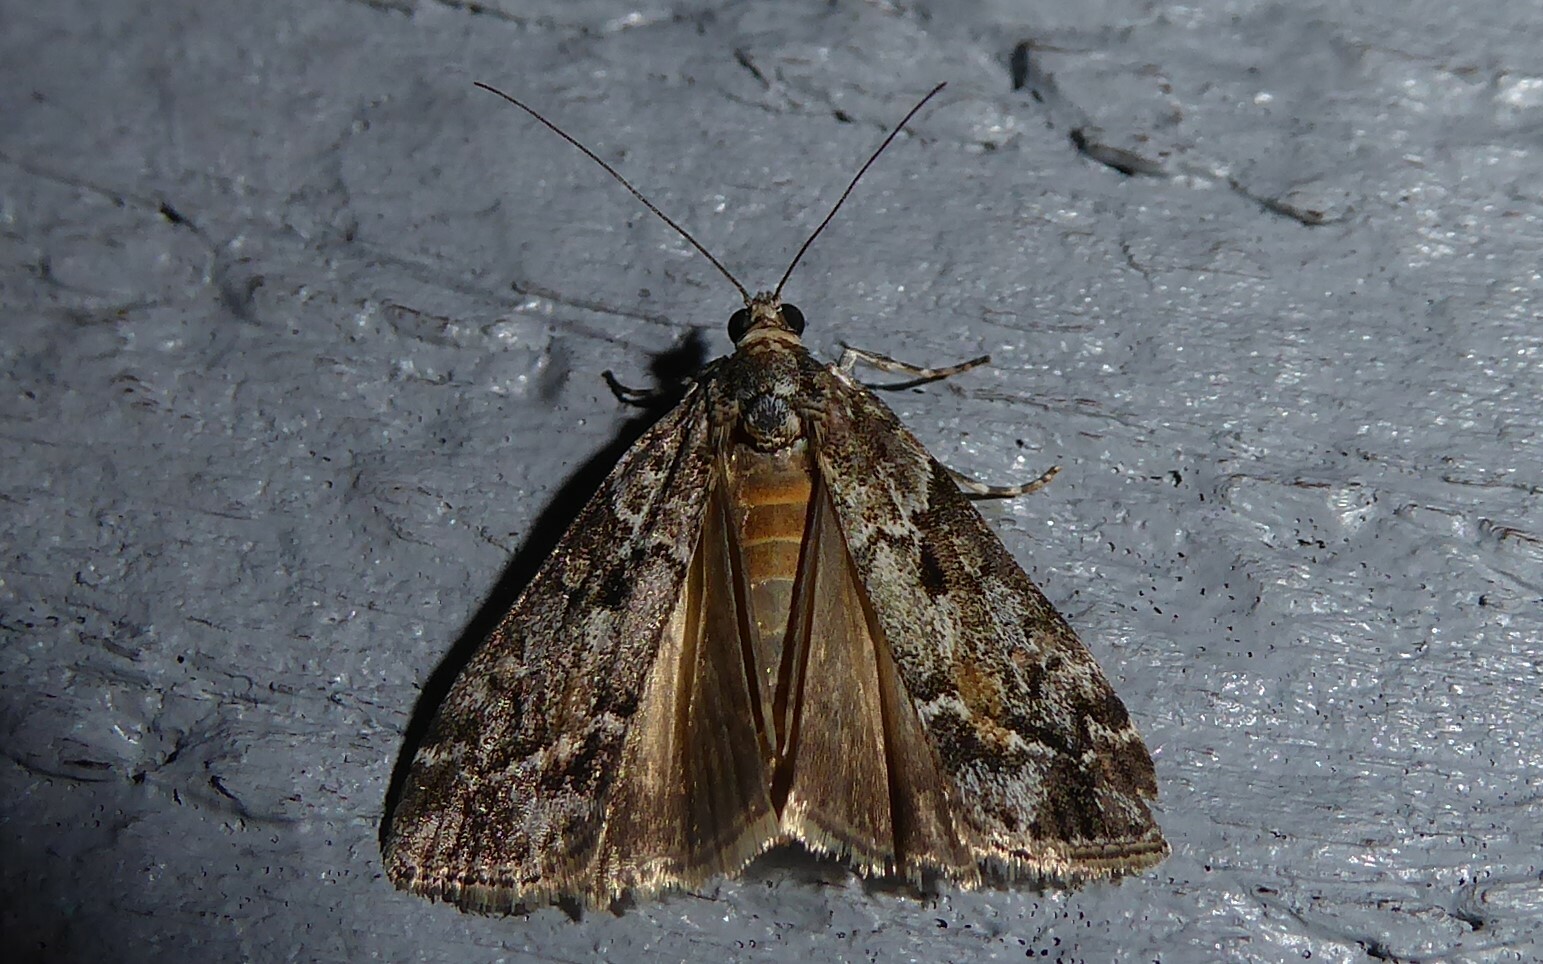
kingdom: Animalia
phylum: Arthropoda
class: Insecta
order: Lepidoptera
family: Crambidae
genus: Eudonia
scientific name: Eudonia submarginalis
